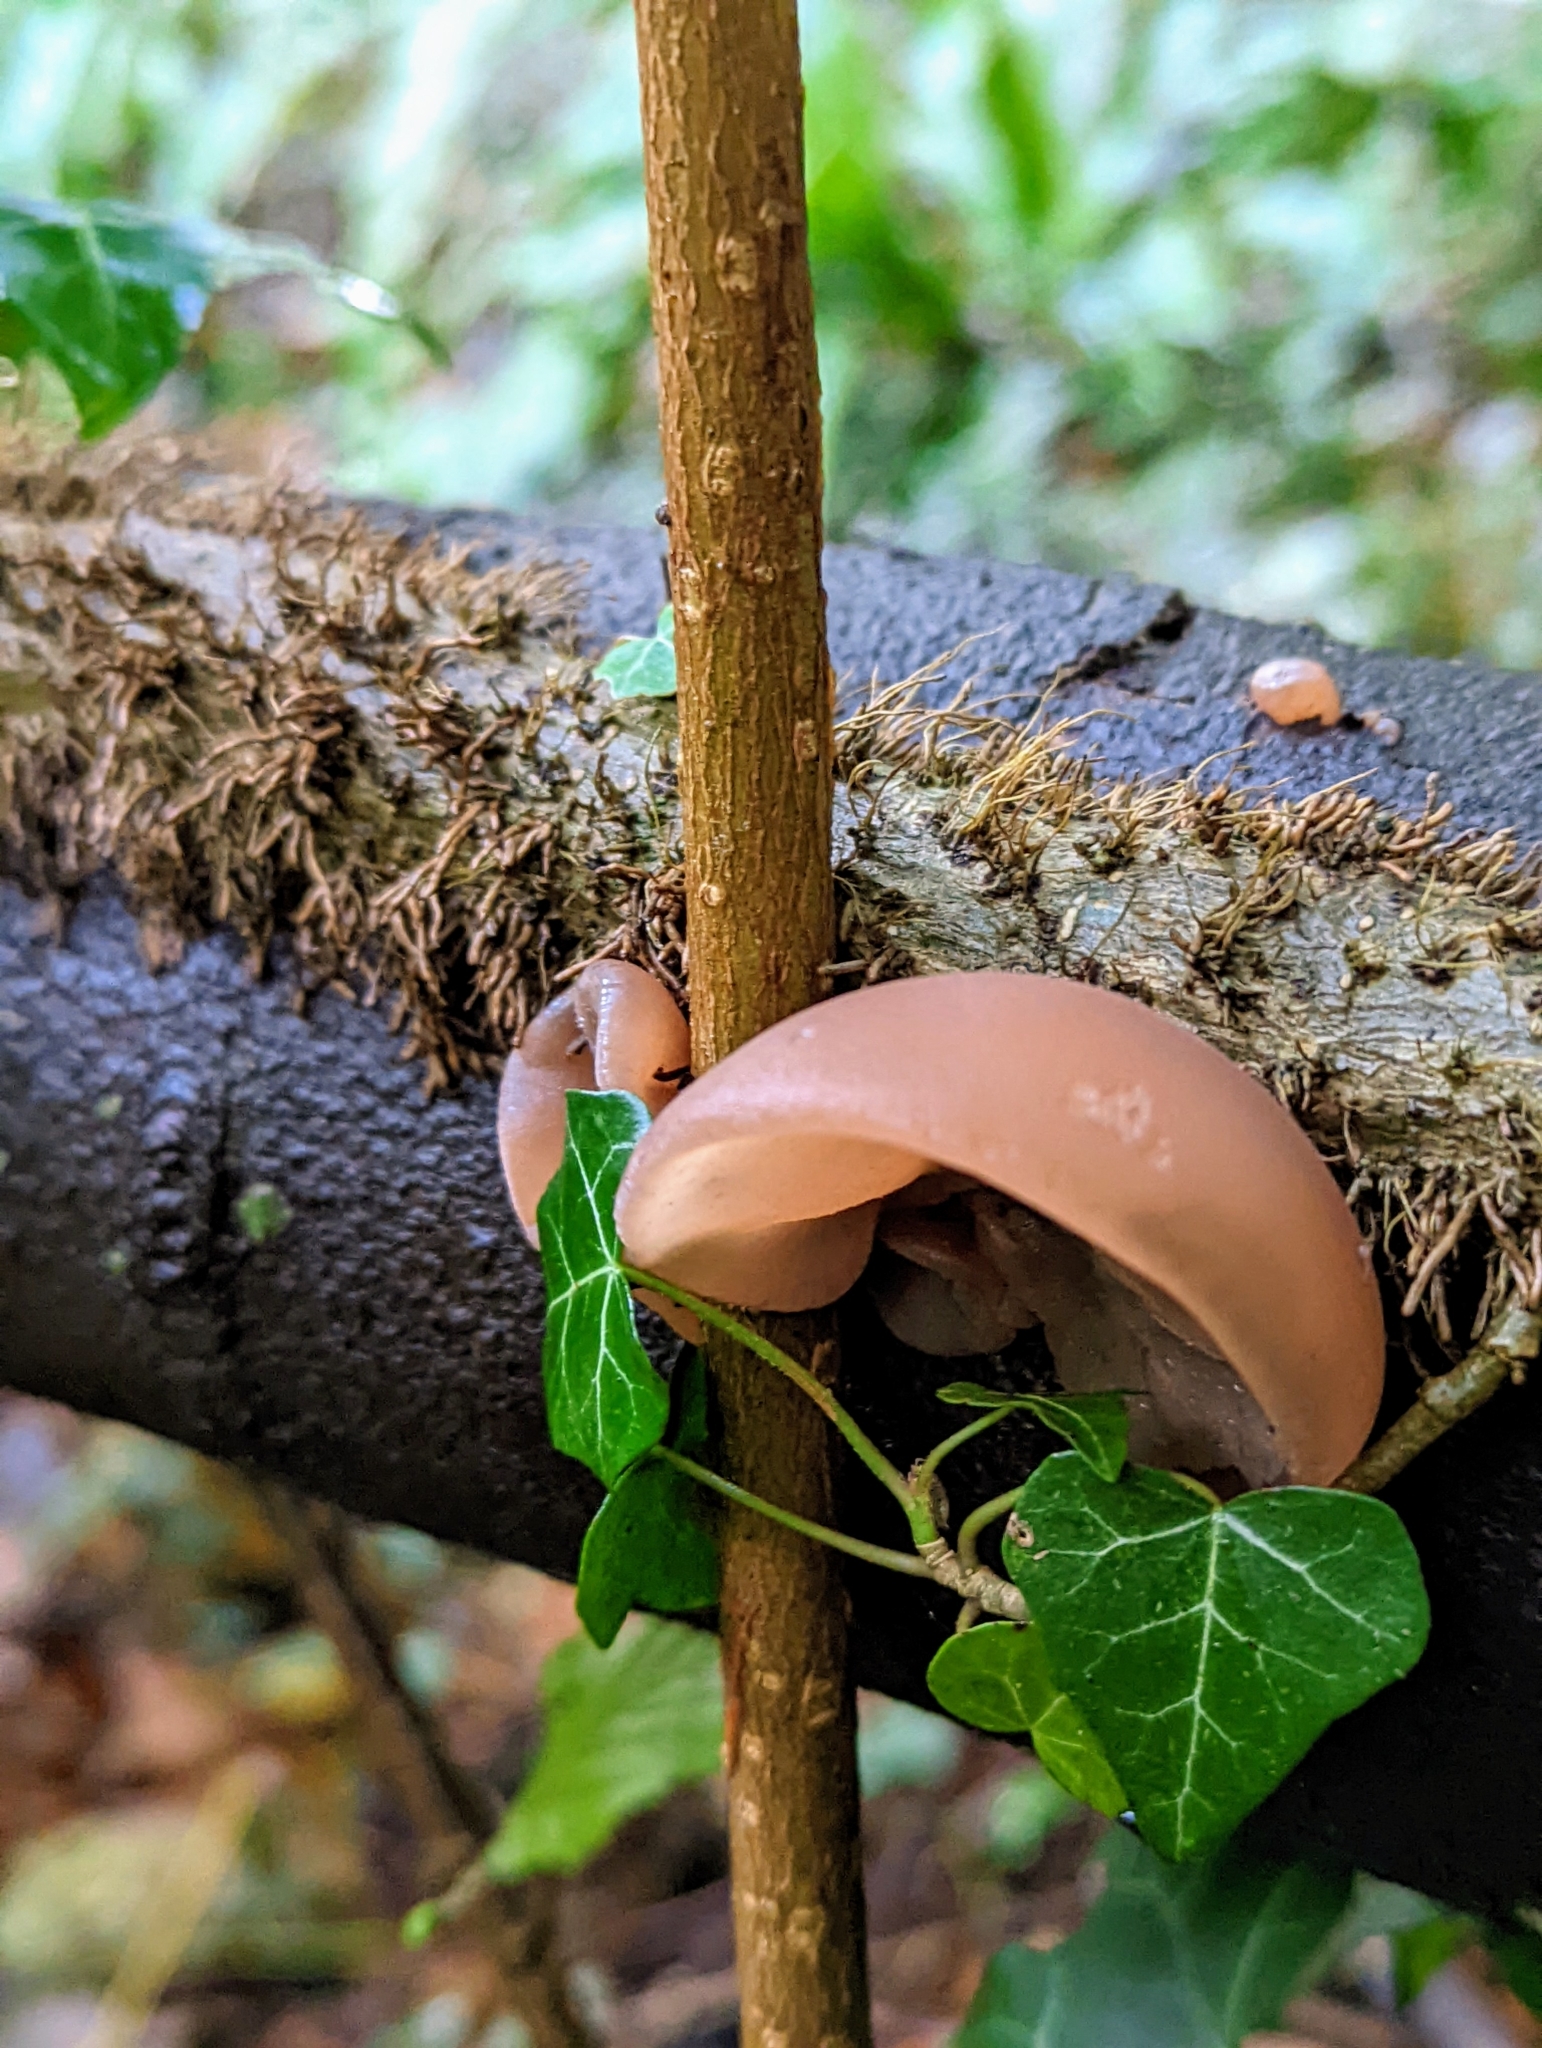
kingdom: Fungi
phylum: Basidiomycota
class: Agaricomycetes
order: Auriculariales
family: Auriculariaceae
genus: Auricularia
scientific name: Auricularia auricula-judae
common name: Jelly ear
